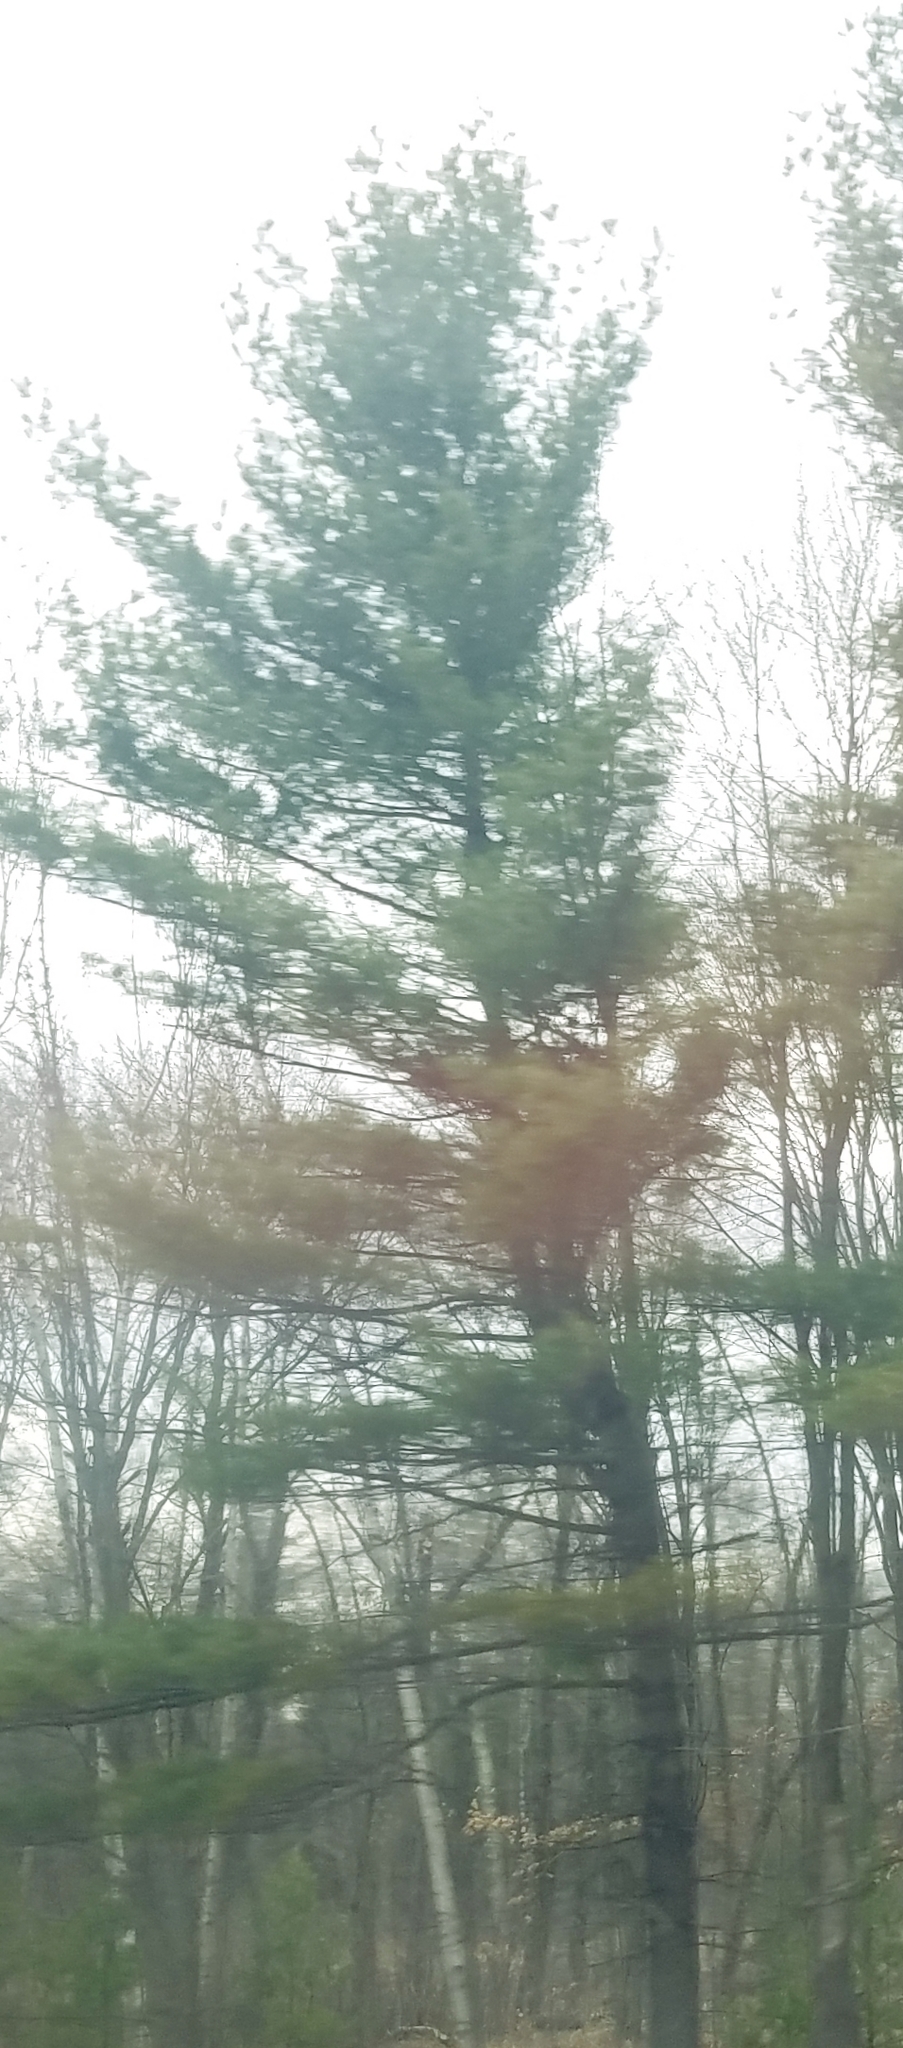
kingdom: Plantae
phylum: Tracheophyta
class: Pinopsida
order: Pinales
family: Pinaceae
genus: Pinus
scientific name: Pinus strobus
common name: Weymouth pine
